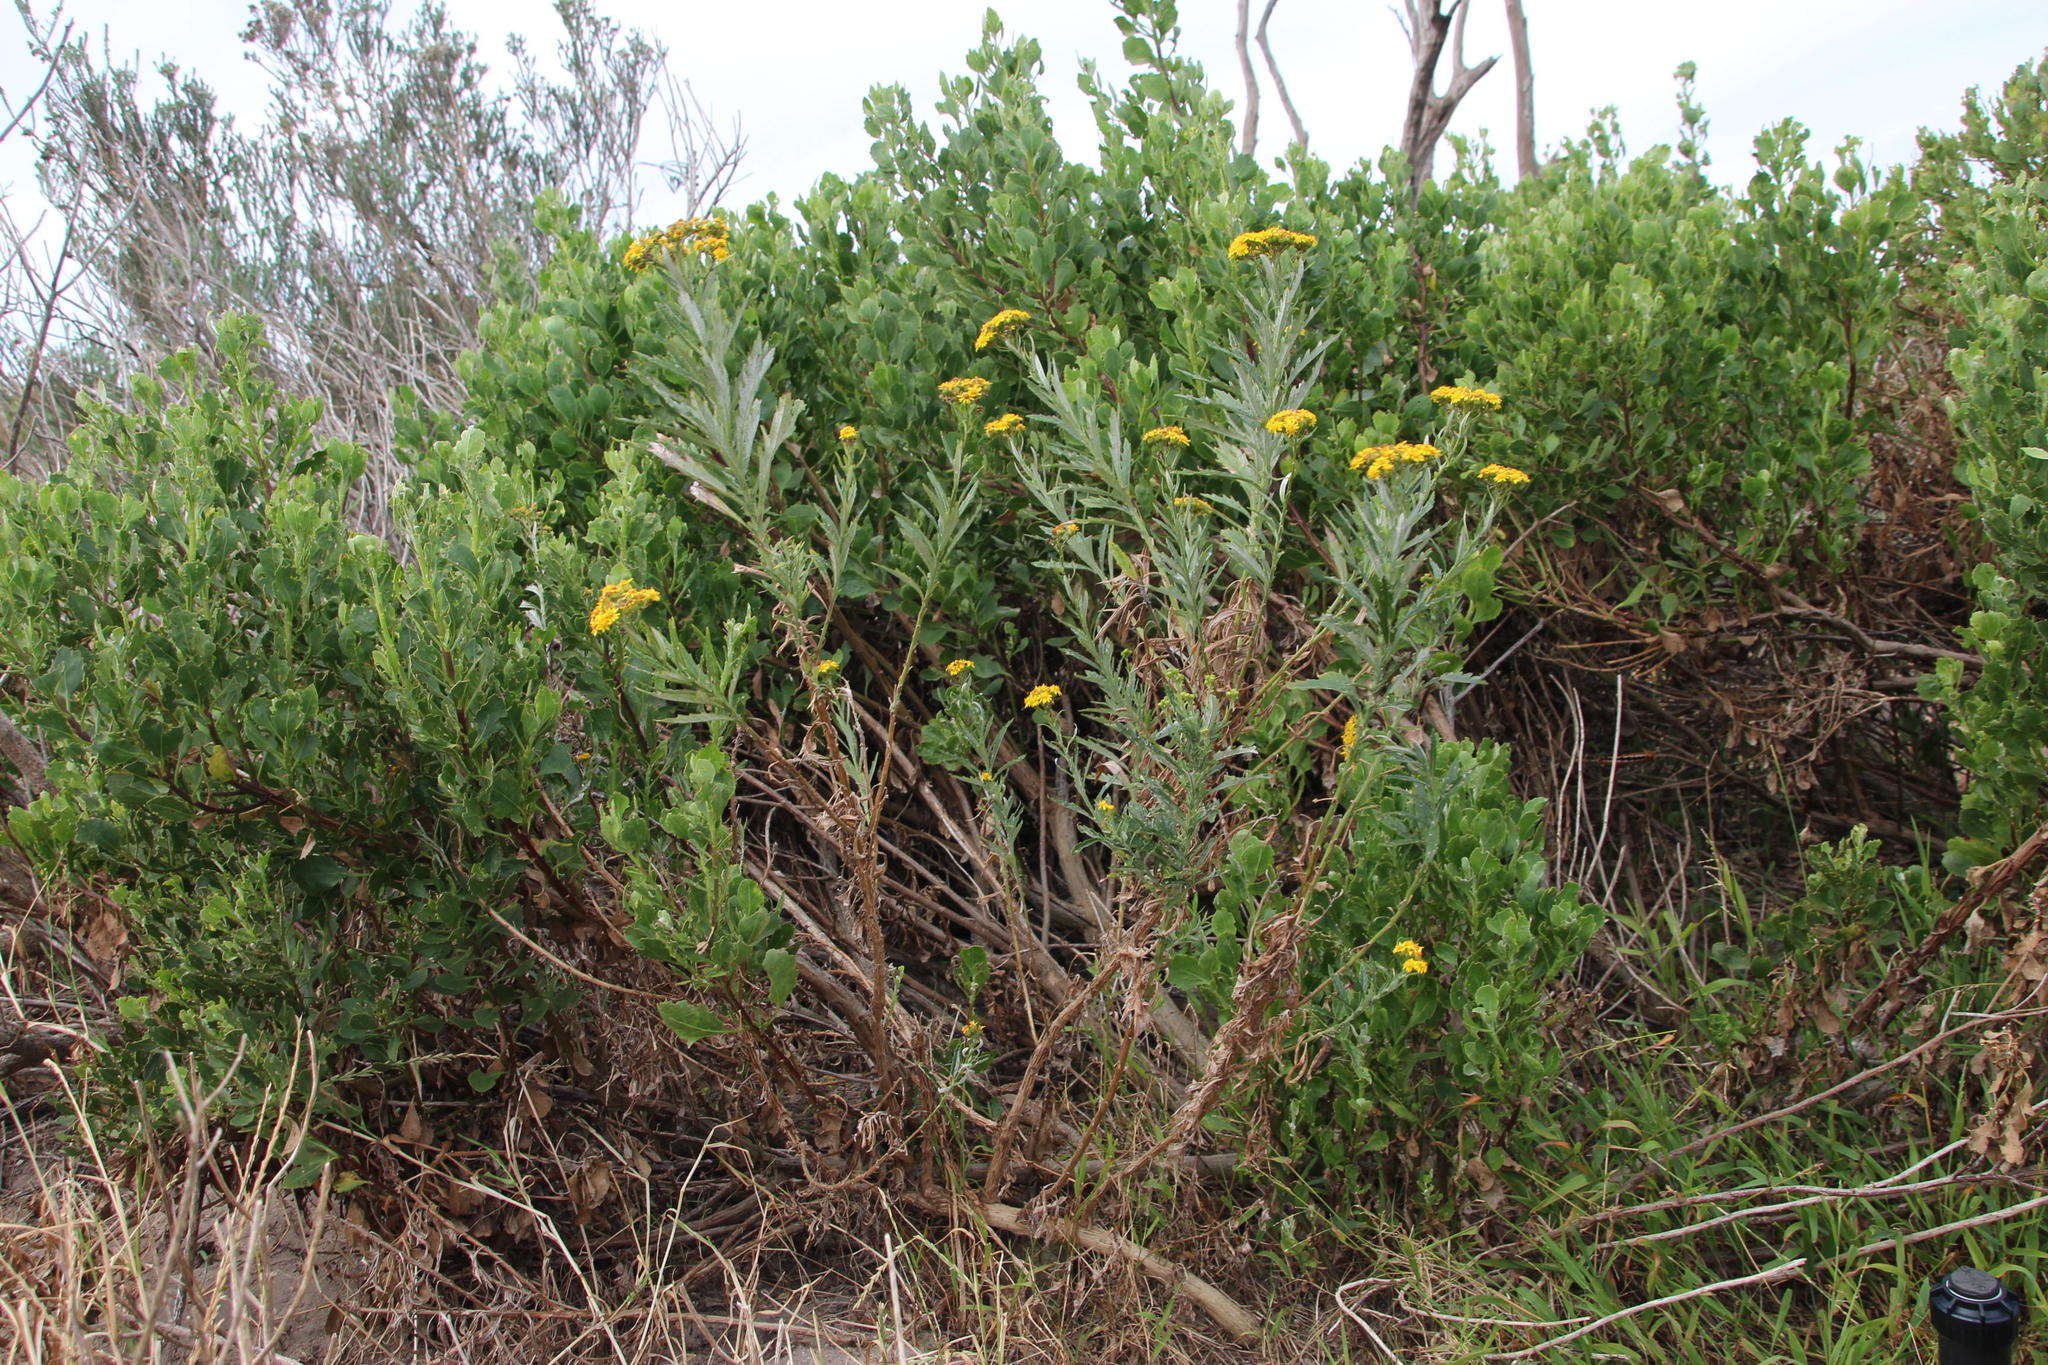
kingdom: Plantae
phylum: Tracheophyta
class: Magnoliopsida
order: Asterales
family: Asteraceae
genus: Senecio
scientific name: Senecio pterophorus
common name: Shoddy ragwort
